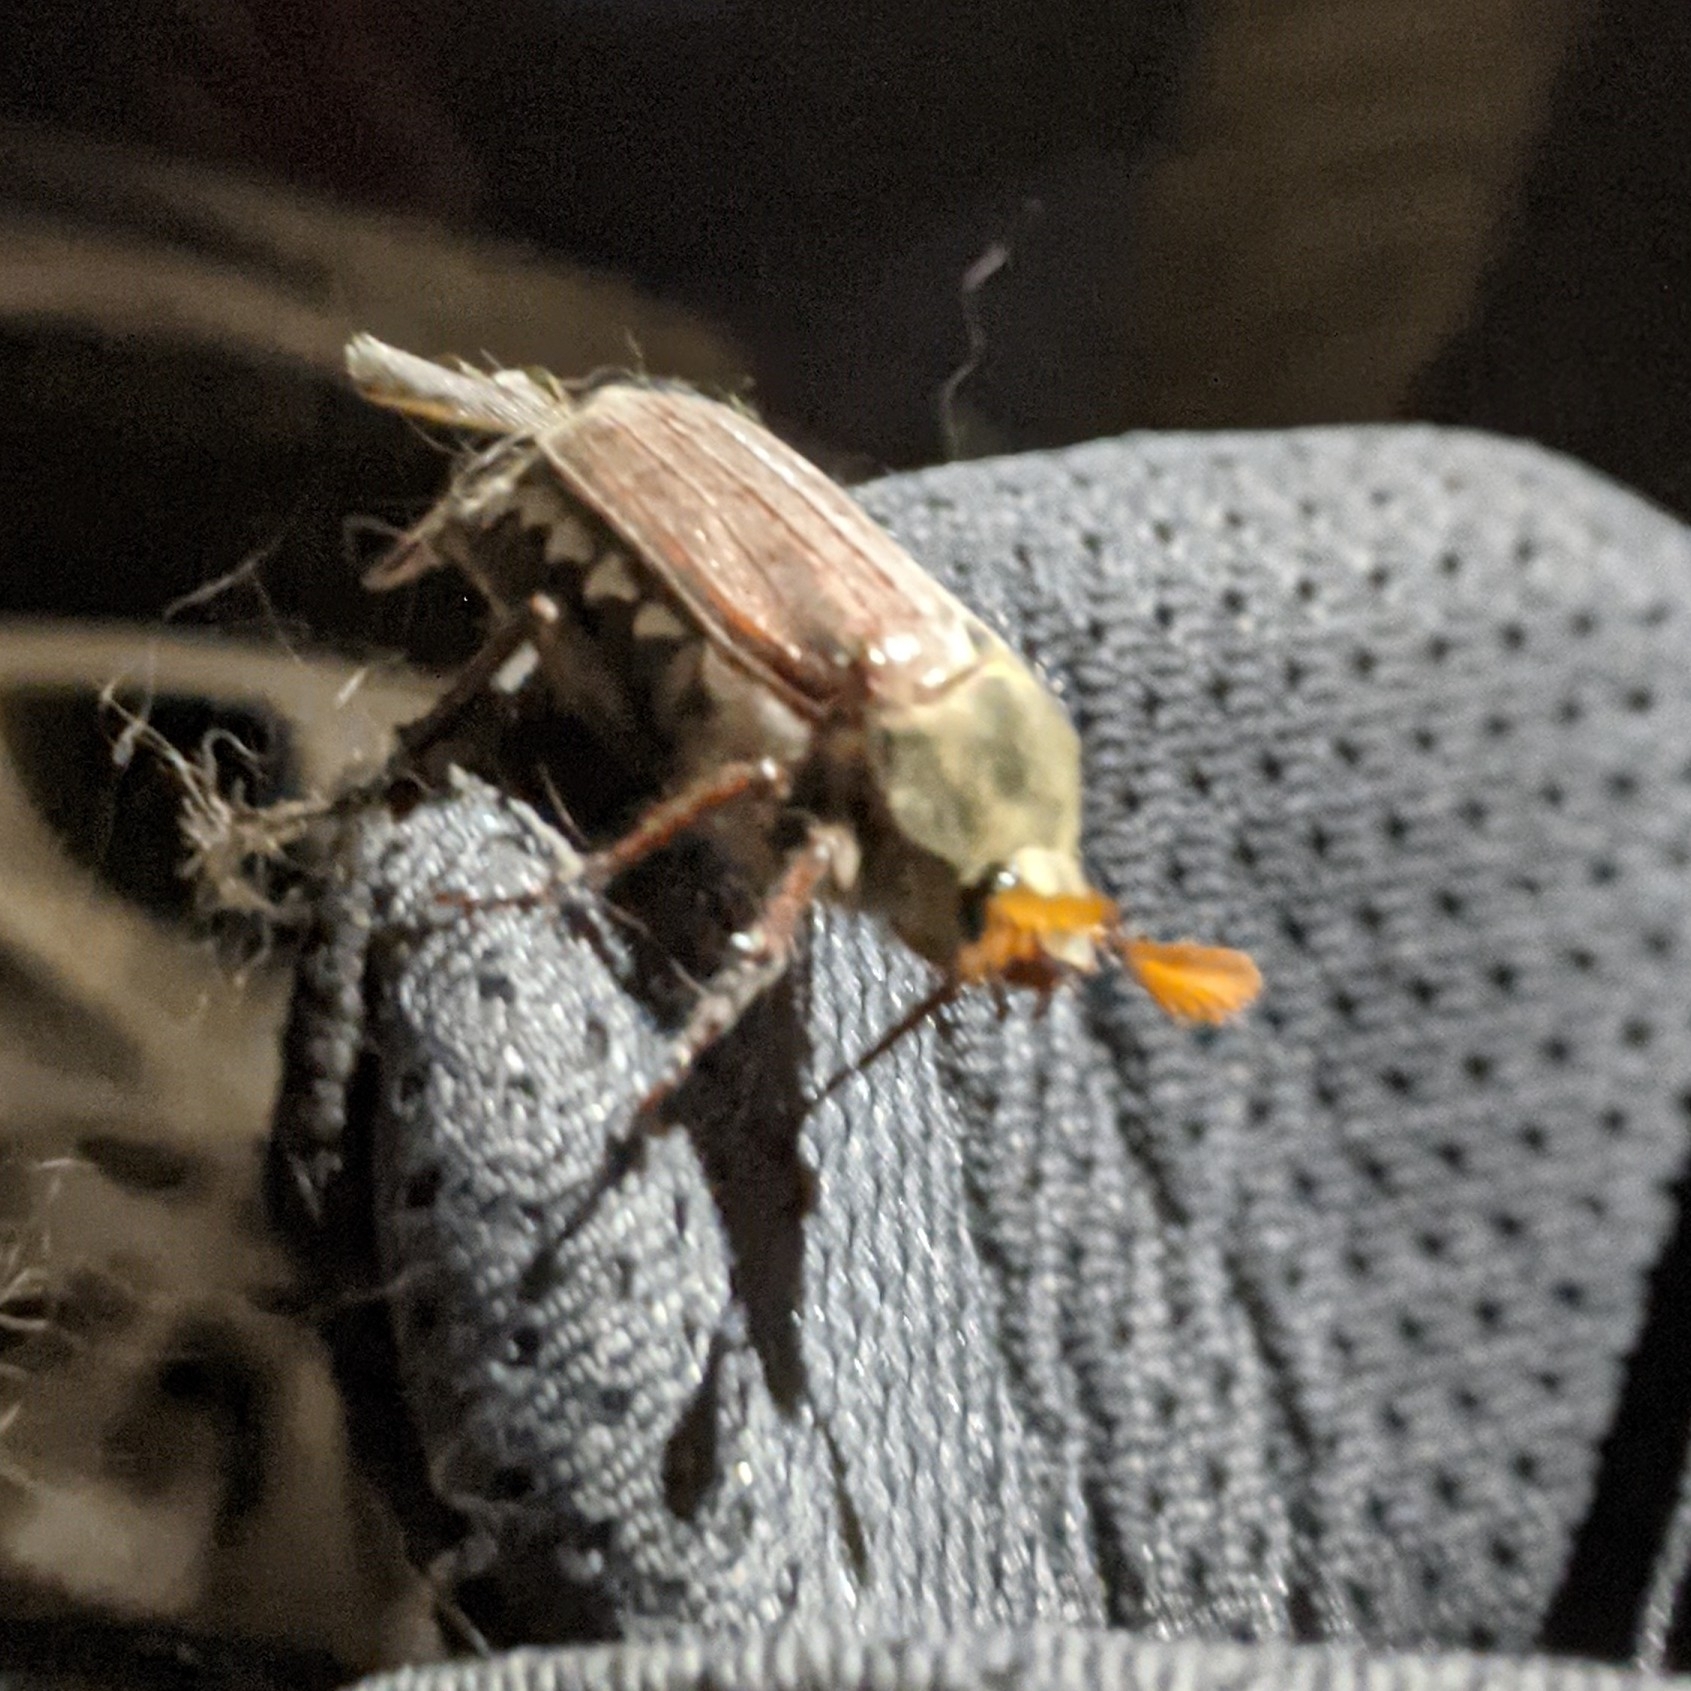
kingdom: Animalia
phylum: Arthropoda
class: Insecta
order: Coleoptera
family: Scarabaeidae
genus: Melolontha
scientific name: Melolontha melolontha
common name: Cockchafer maybeetle
